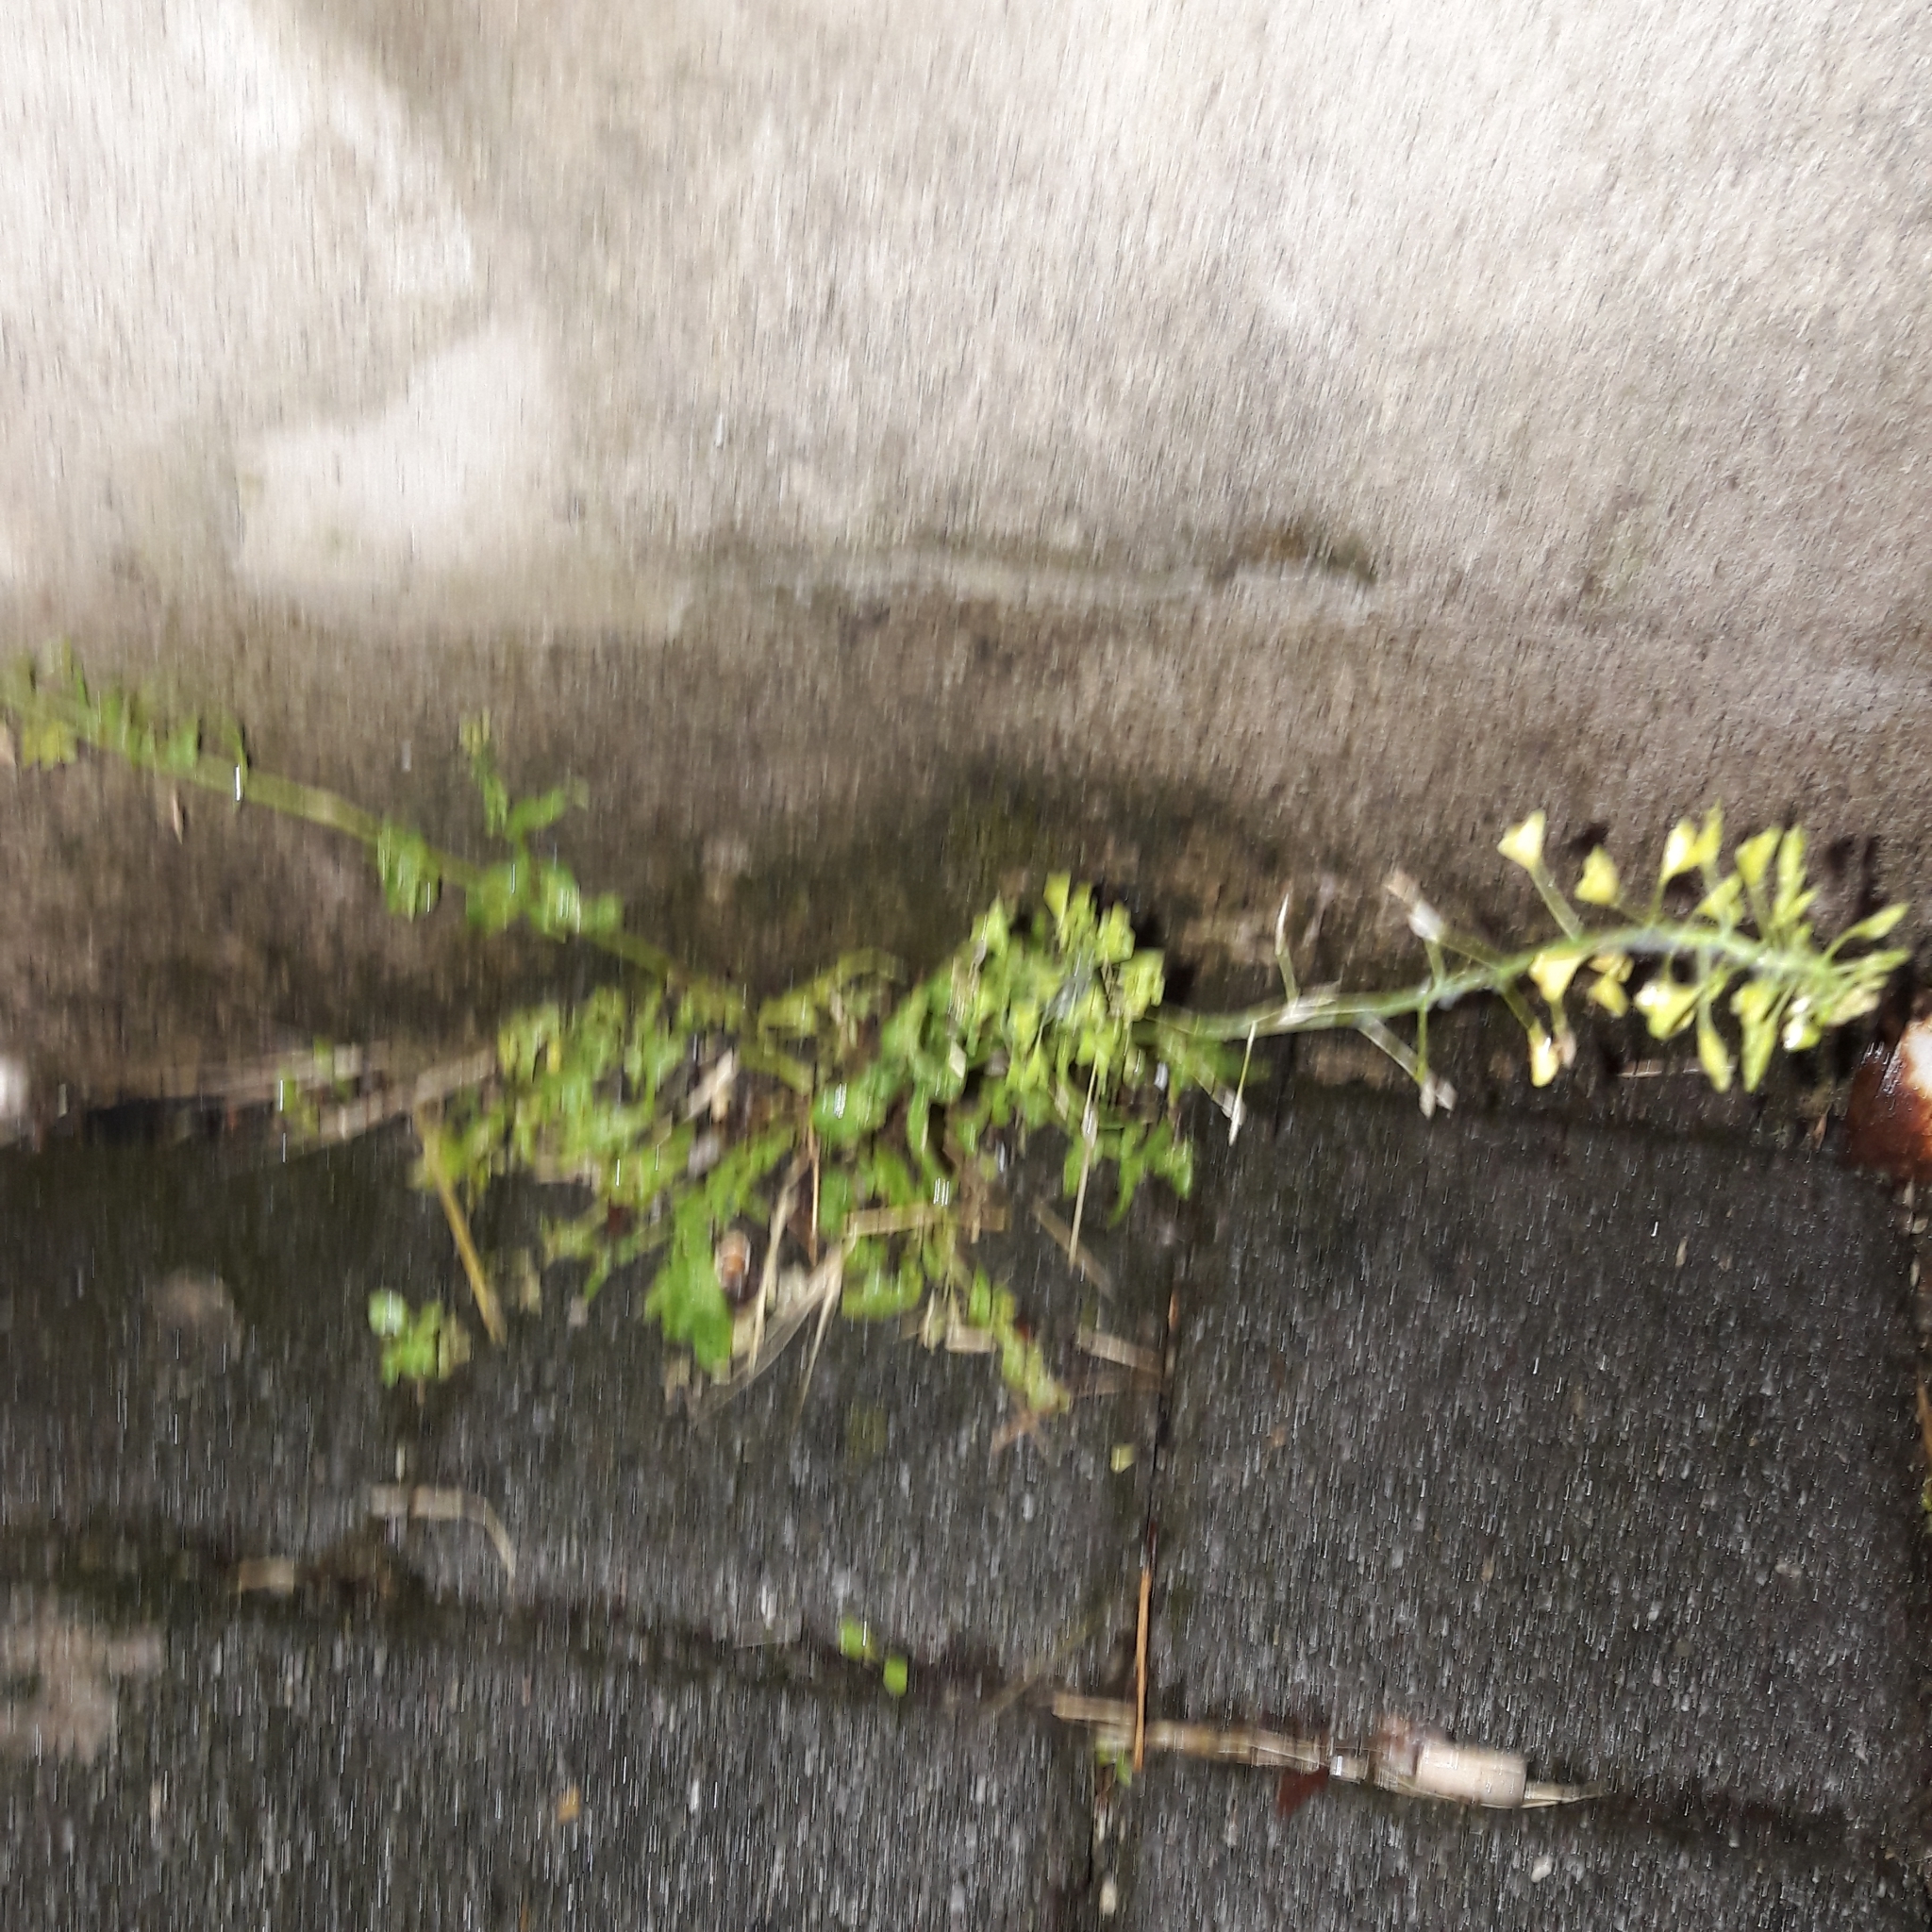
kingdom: Plantae
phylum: Tracheophyta
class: Magnoliopsida
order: Brassicales
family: Brassicaceae
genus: Capsella
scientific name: Capsella bursa-pastoris
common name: Shepherd's purse
